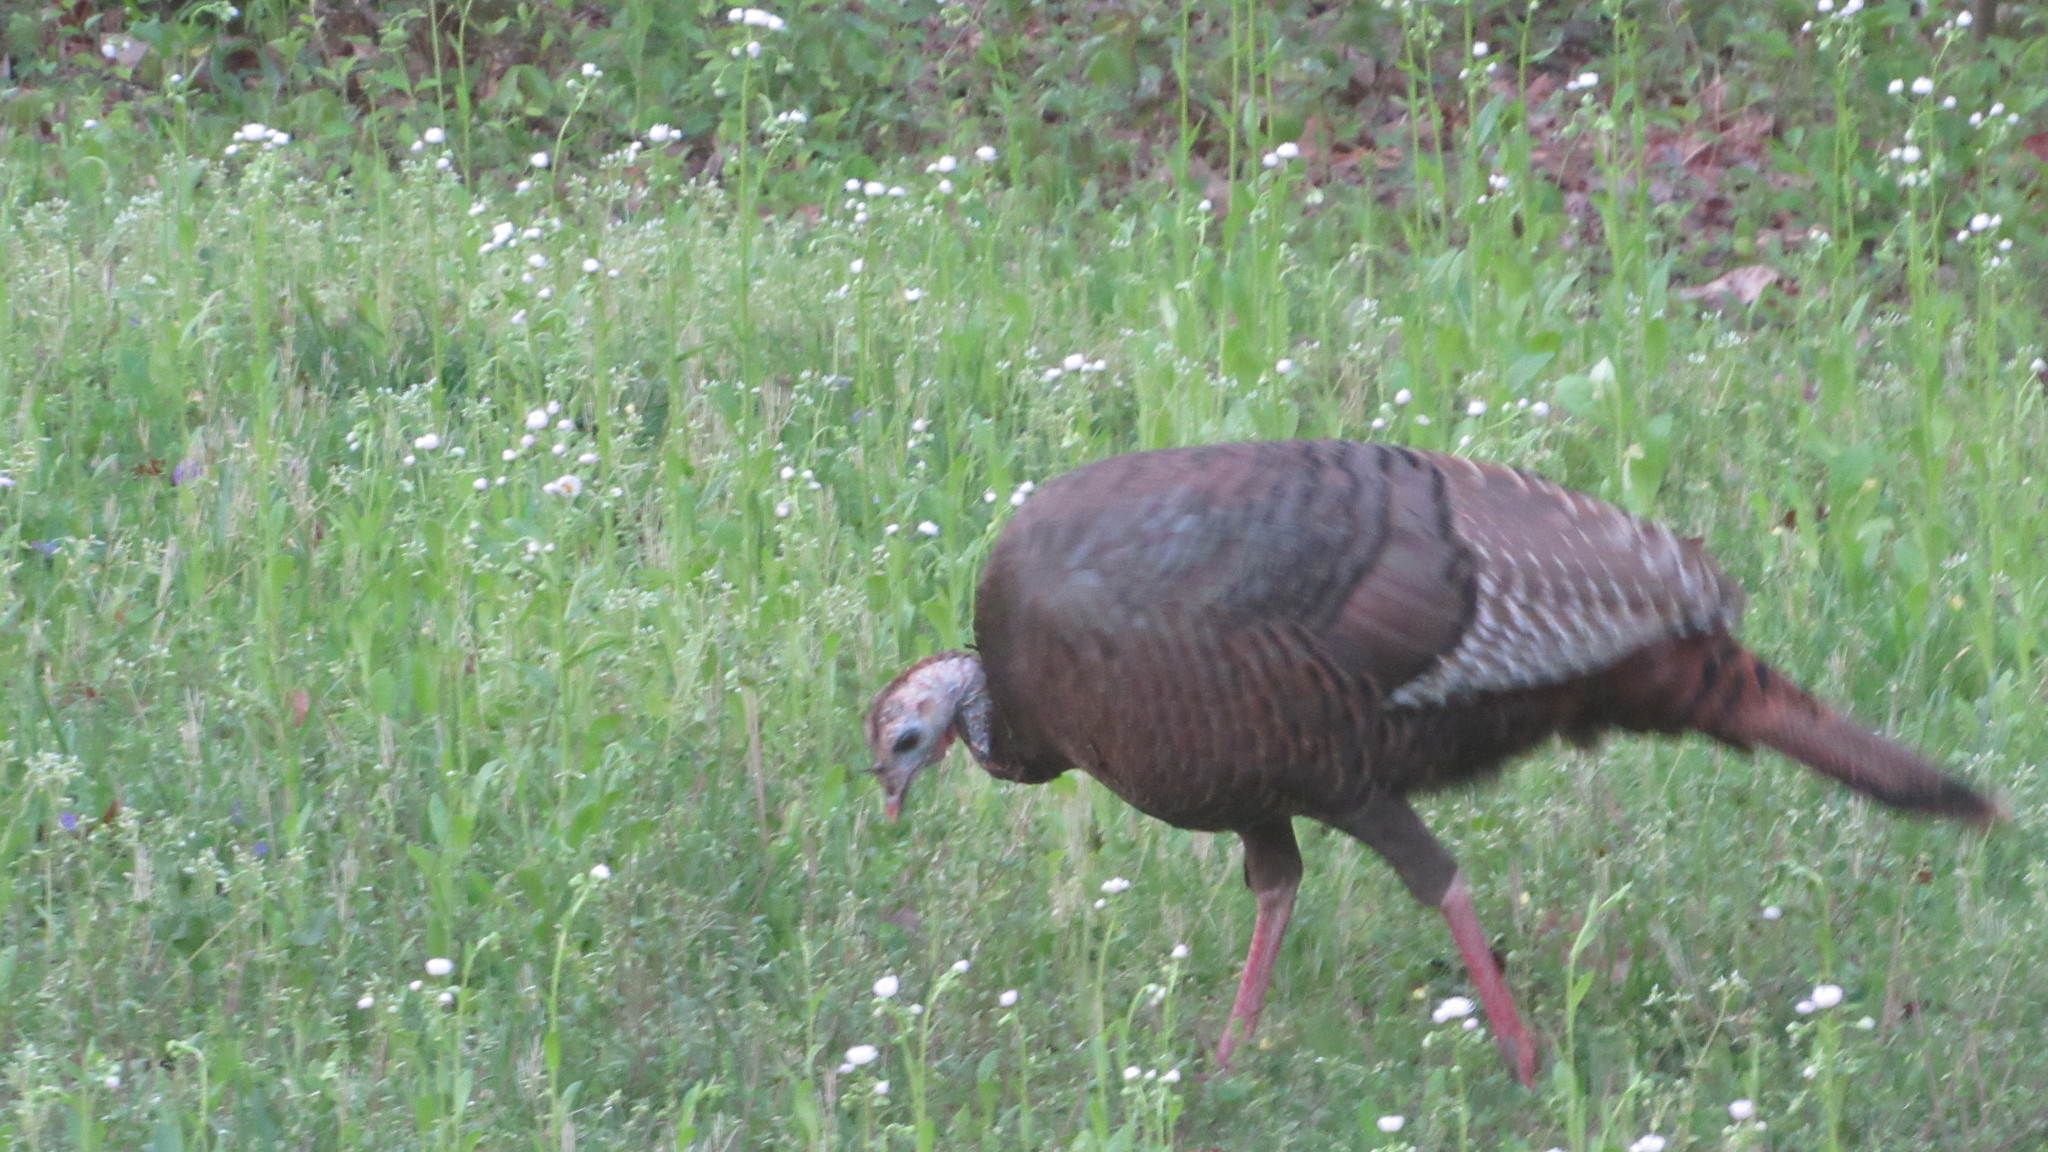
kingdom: Animalia
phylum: Chordata
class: Aves
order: Galliformes
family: Phasianidae
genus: Meleagris
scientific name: Meleagris gallopavo
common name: Wild turkey
